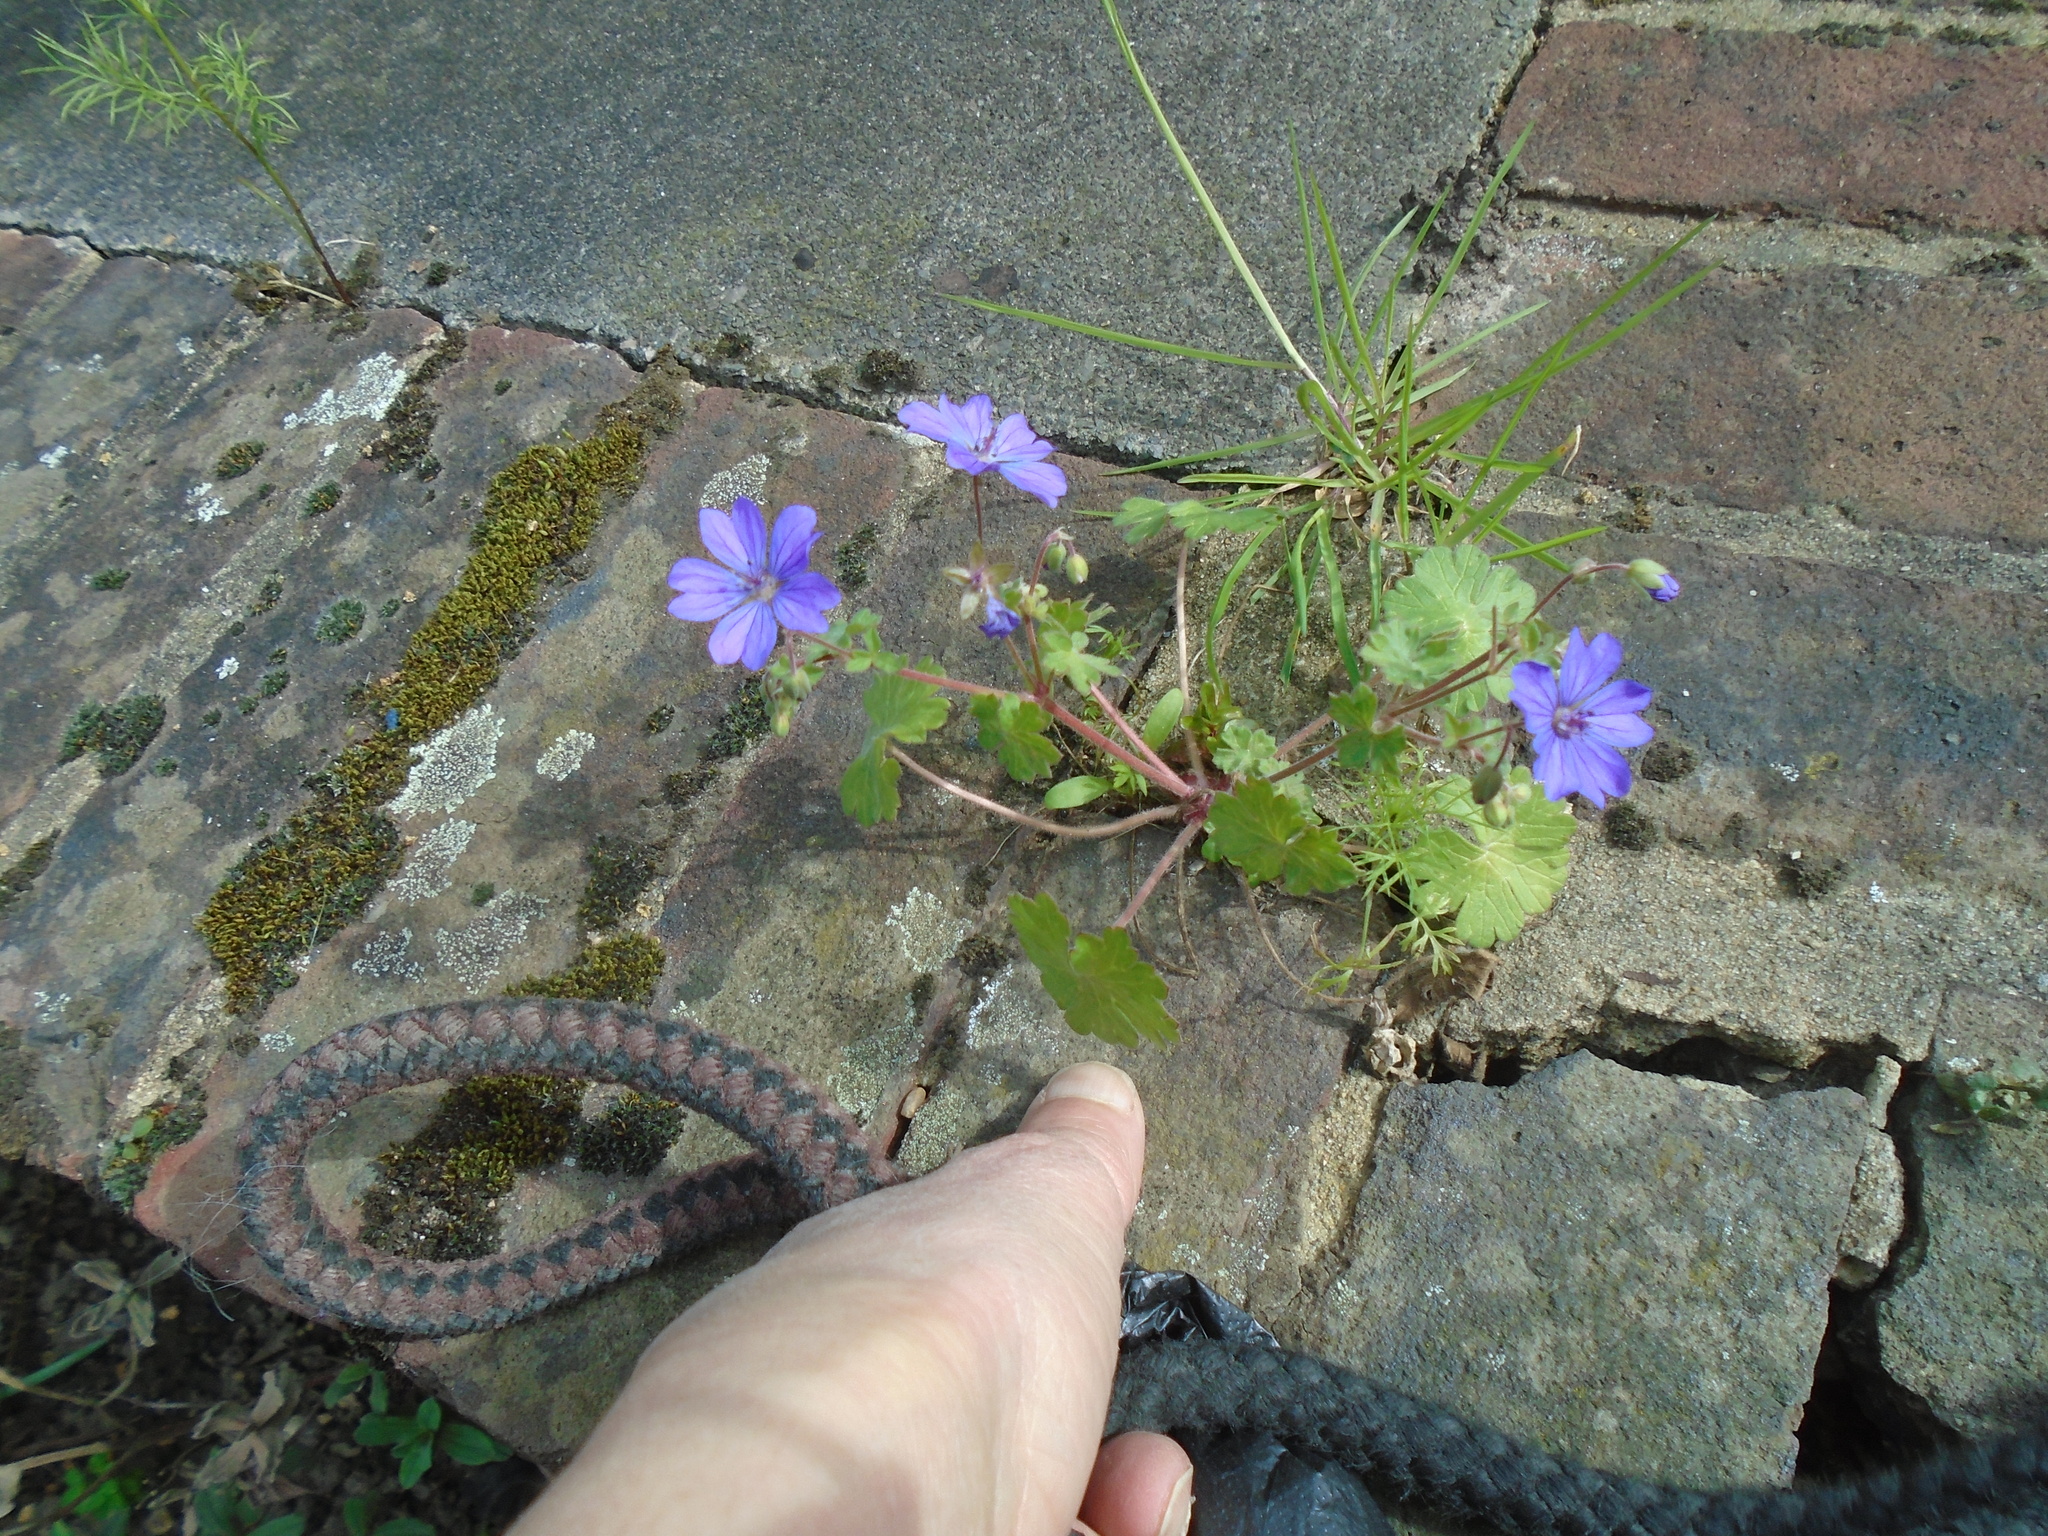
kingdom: Plantae
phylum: Tracheophyta
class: Magnoliopsida
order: Geraniales
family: Geraniaceae
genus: Geranium
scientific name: Geranium pyrenaicum
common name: Hedgerow crane's-bill
